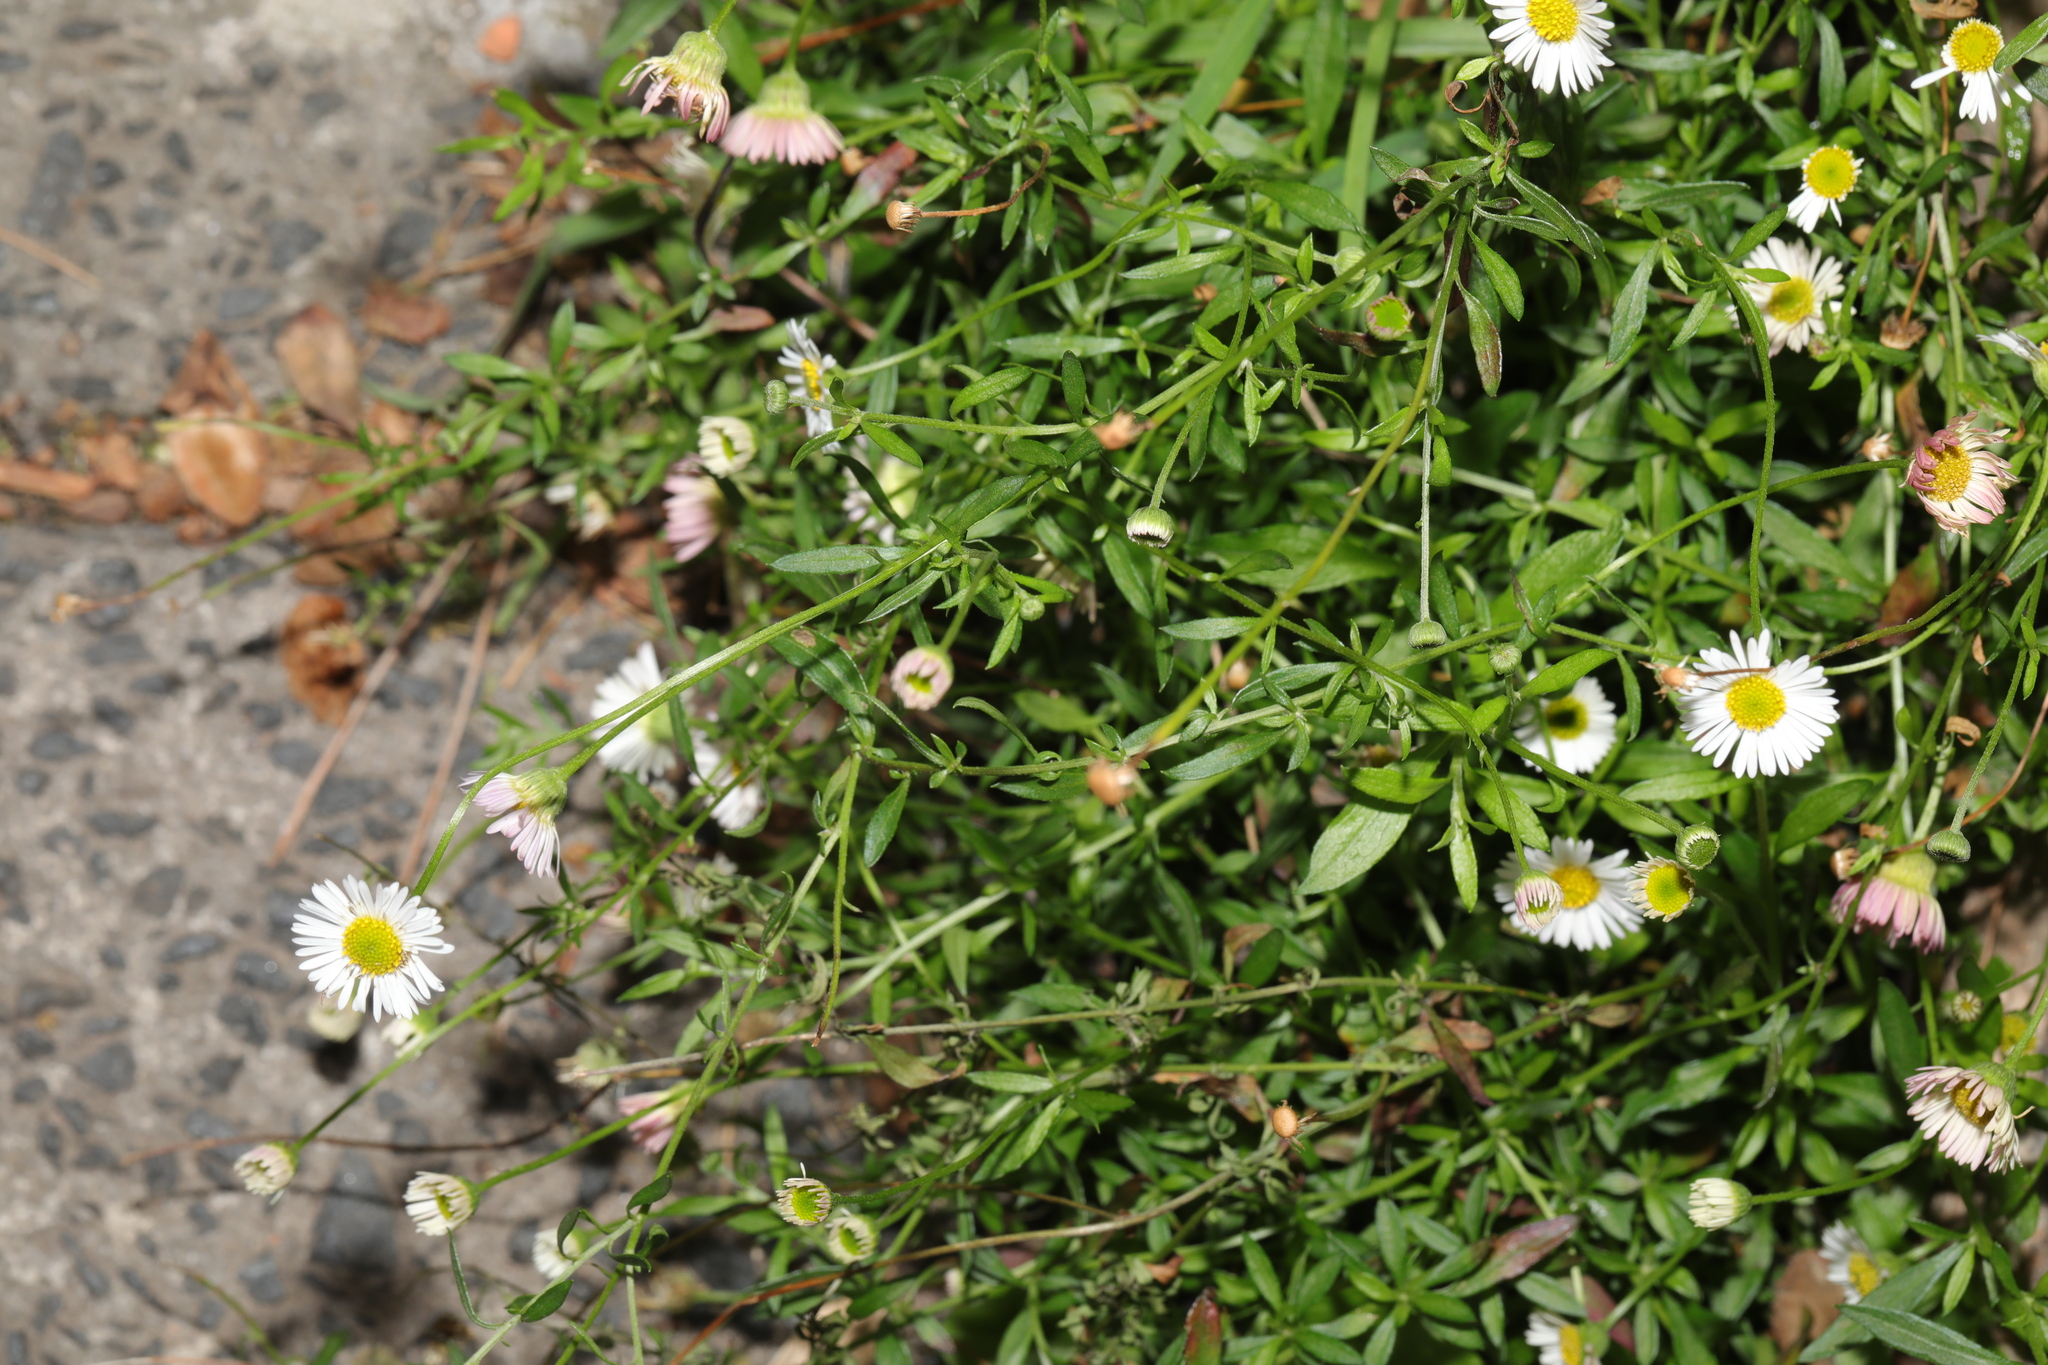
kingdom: Plantae
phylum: Tracheophyta
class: Magnoliopsida
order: Asterales
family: Asteraceae
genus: Erigeron
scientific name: Erigeron karvinskianus
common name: Mexican fleabane
